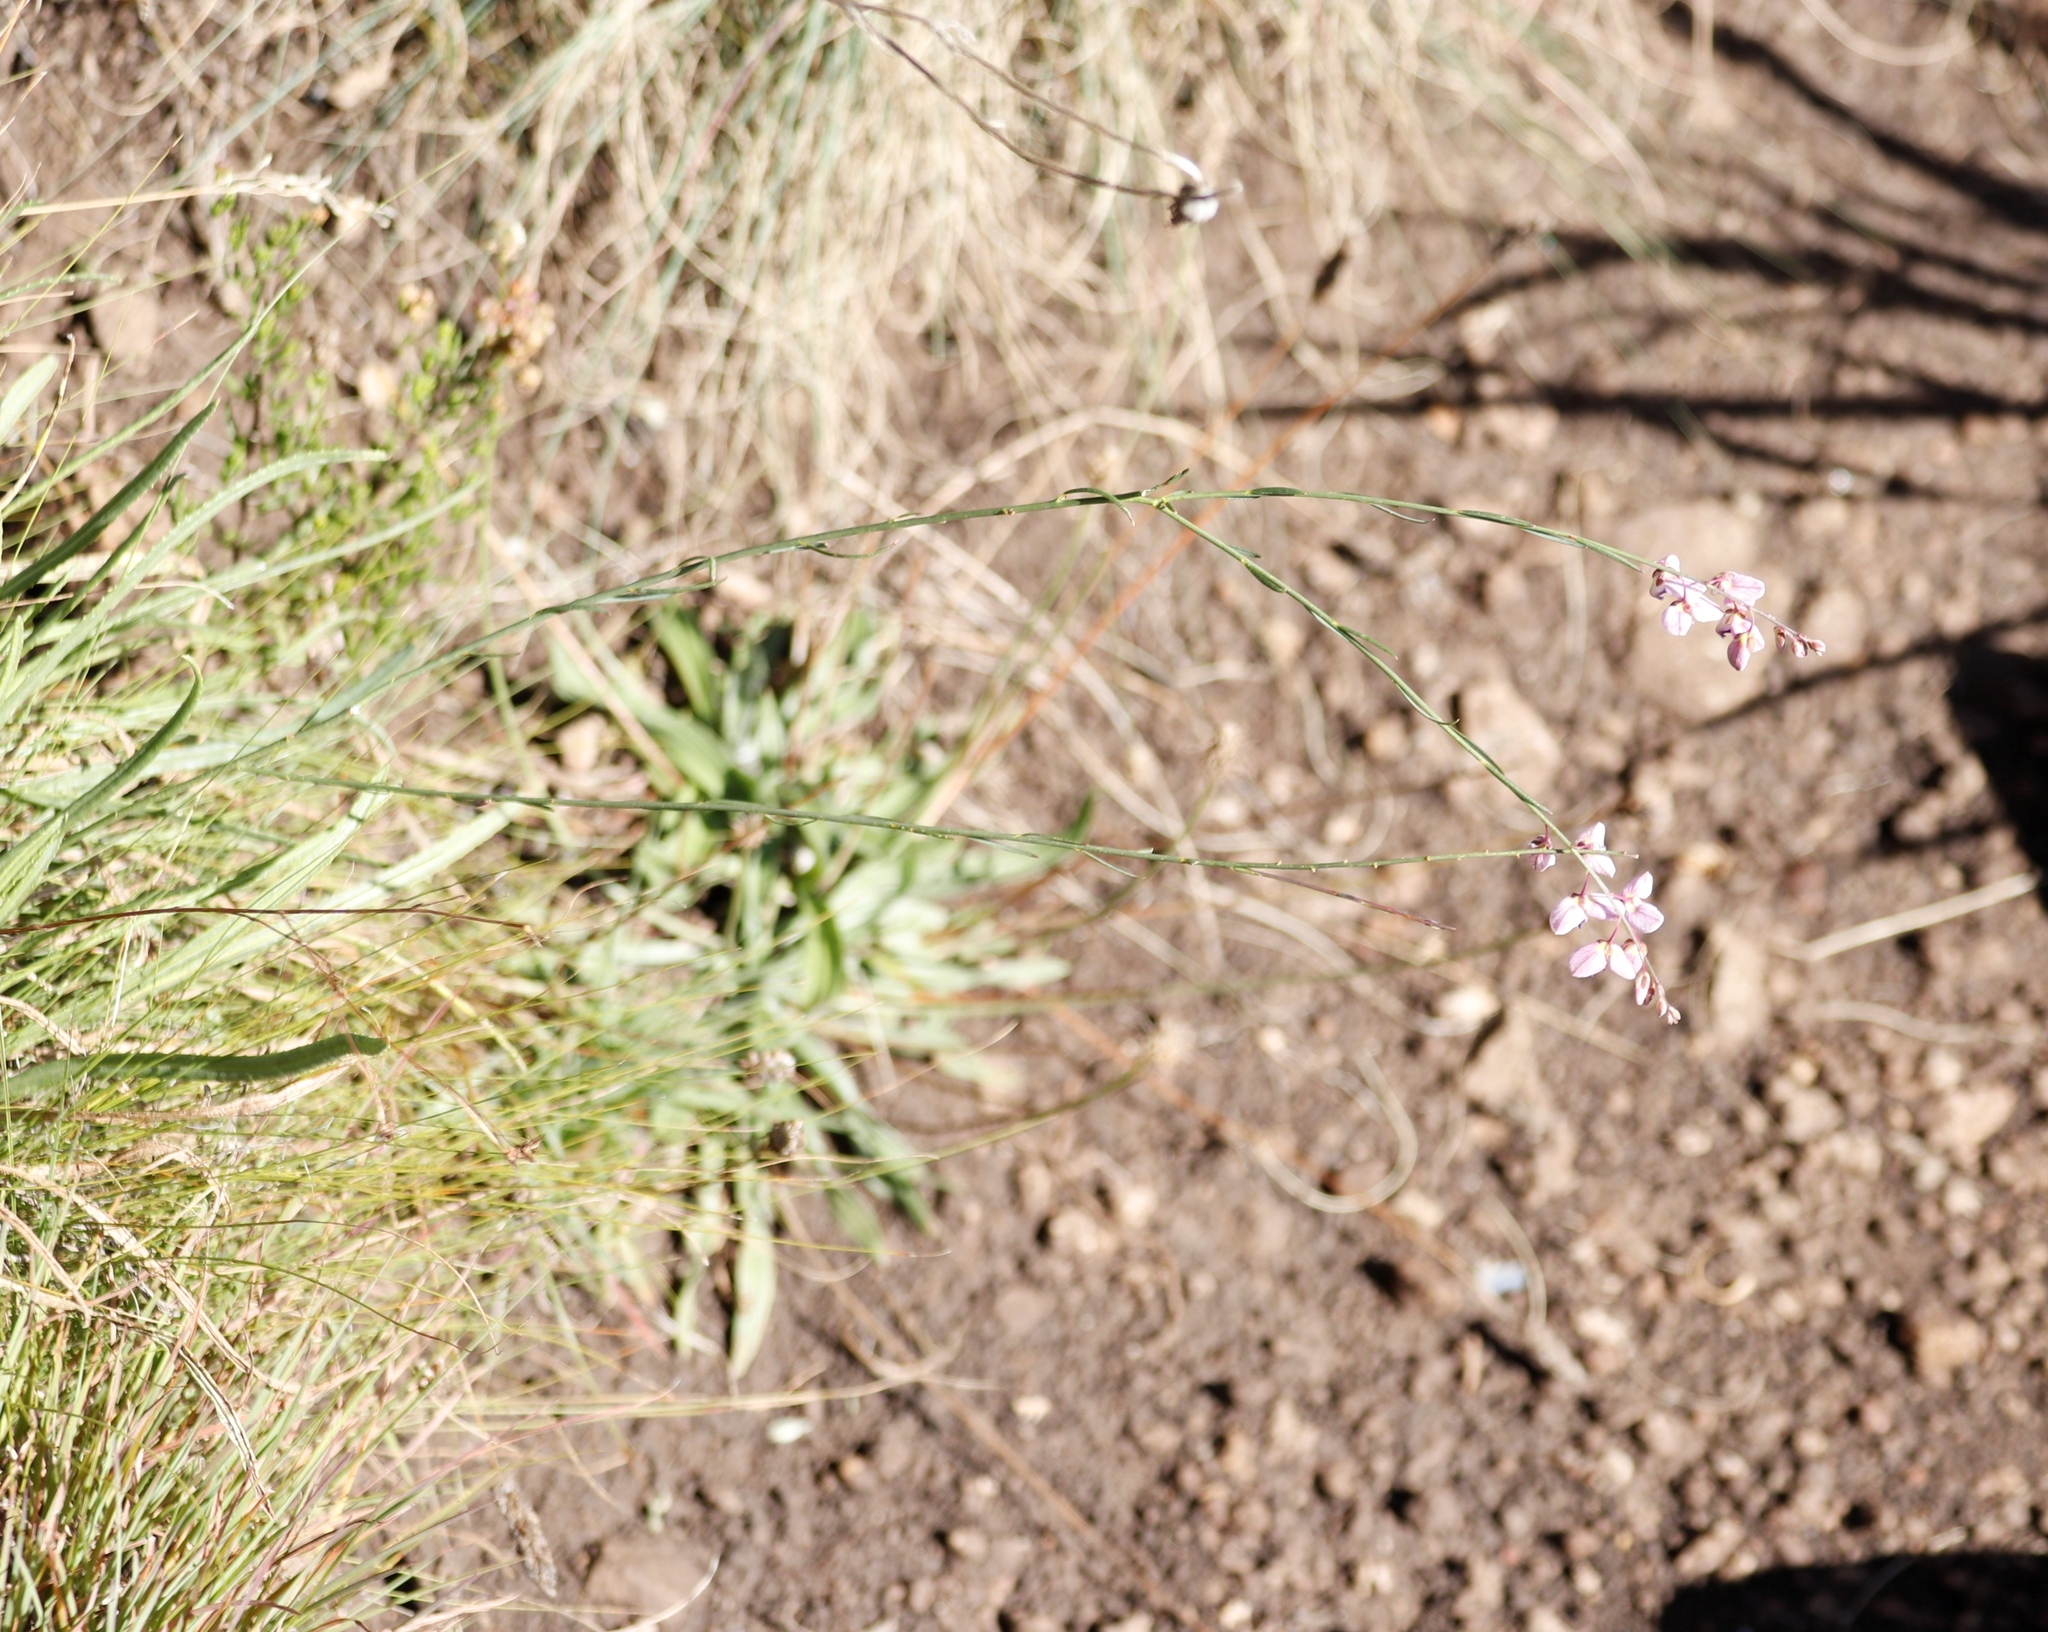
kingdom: Plantae
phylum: Tracheophyta
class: Magnoliopsida
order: Fabales
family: Polygalaceae
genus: Polygala
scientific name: Polygala hottentotta
